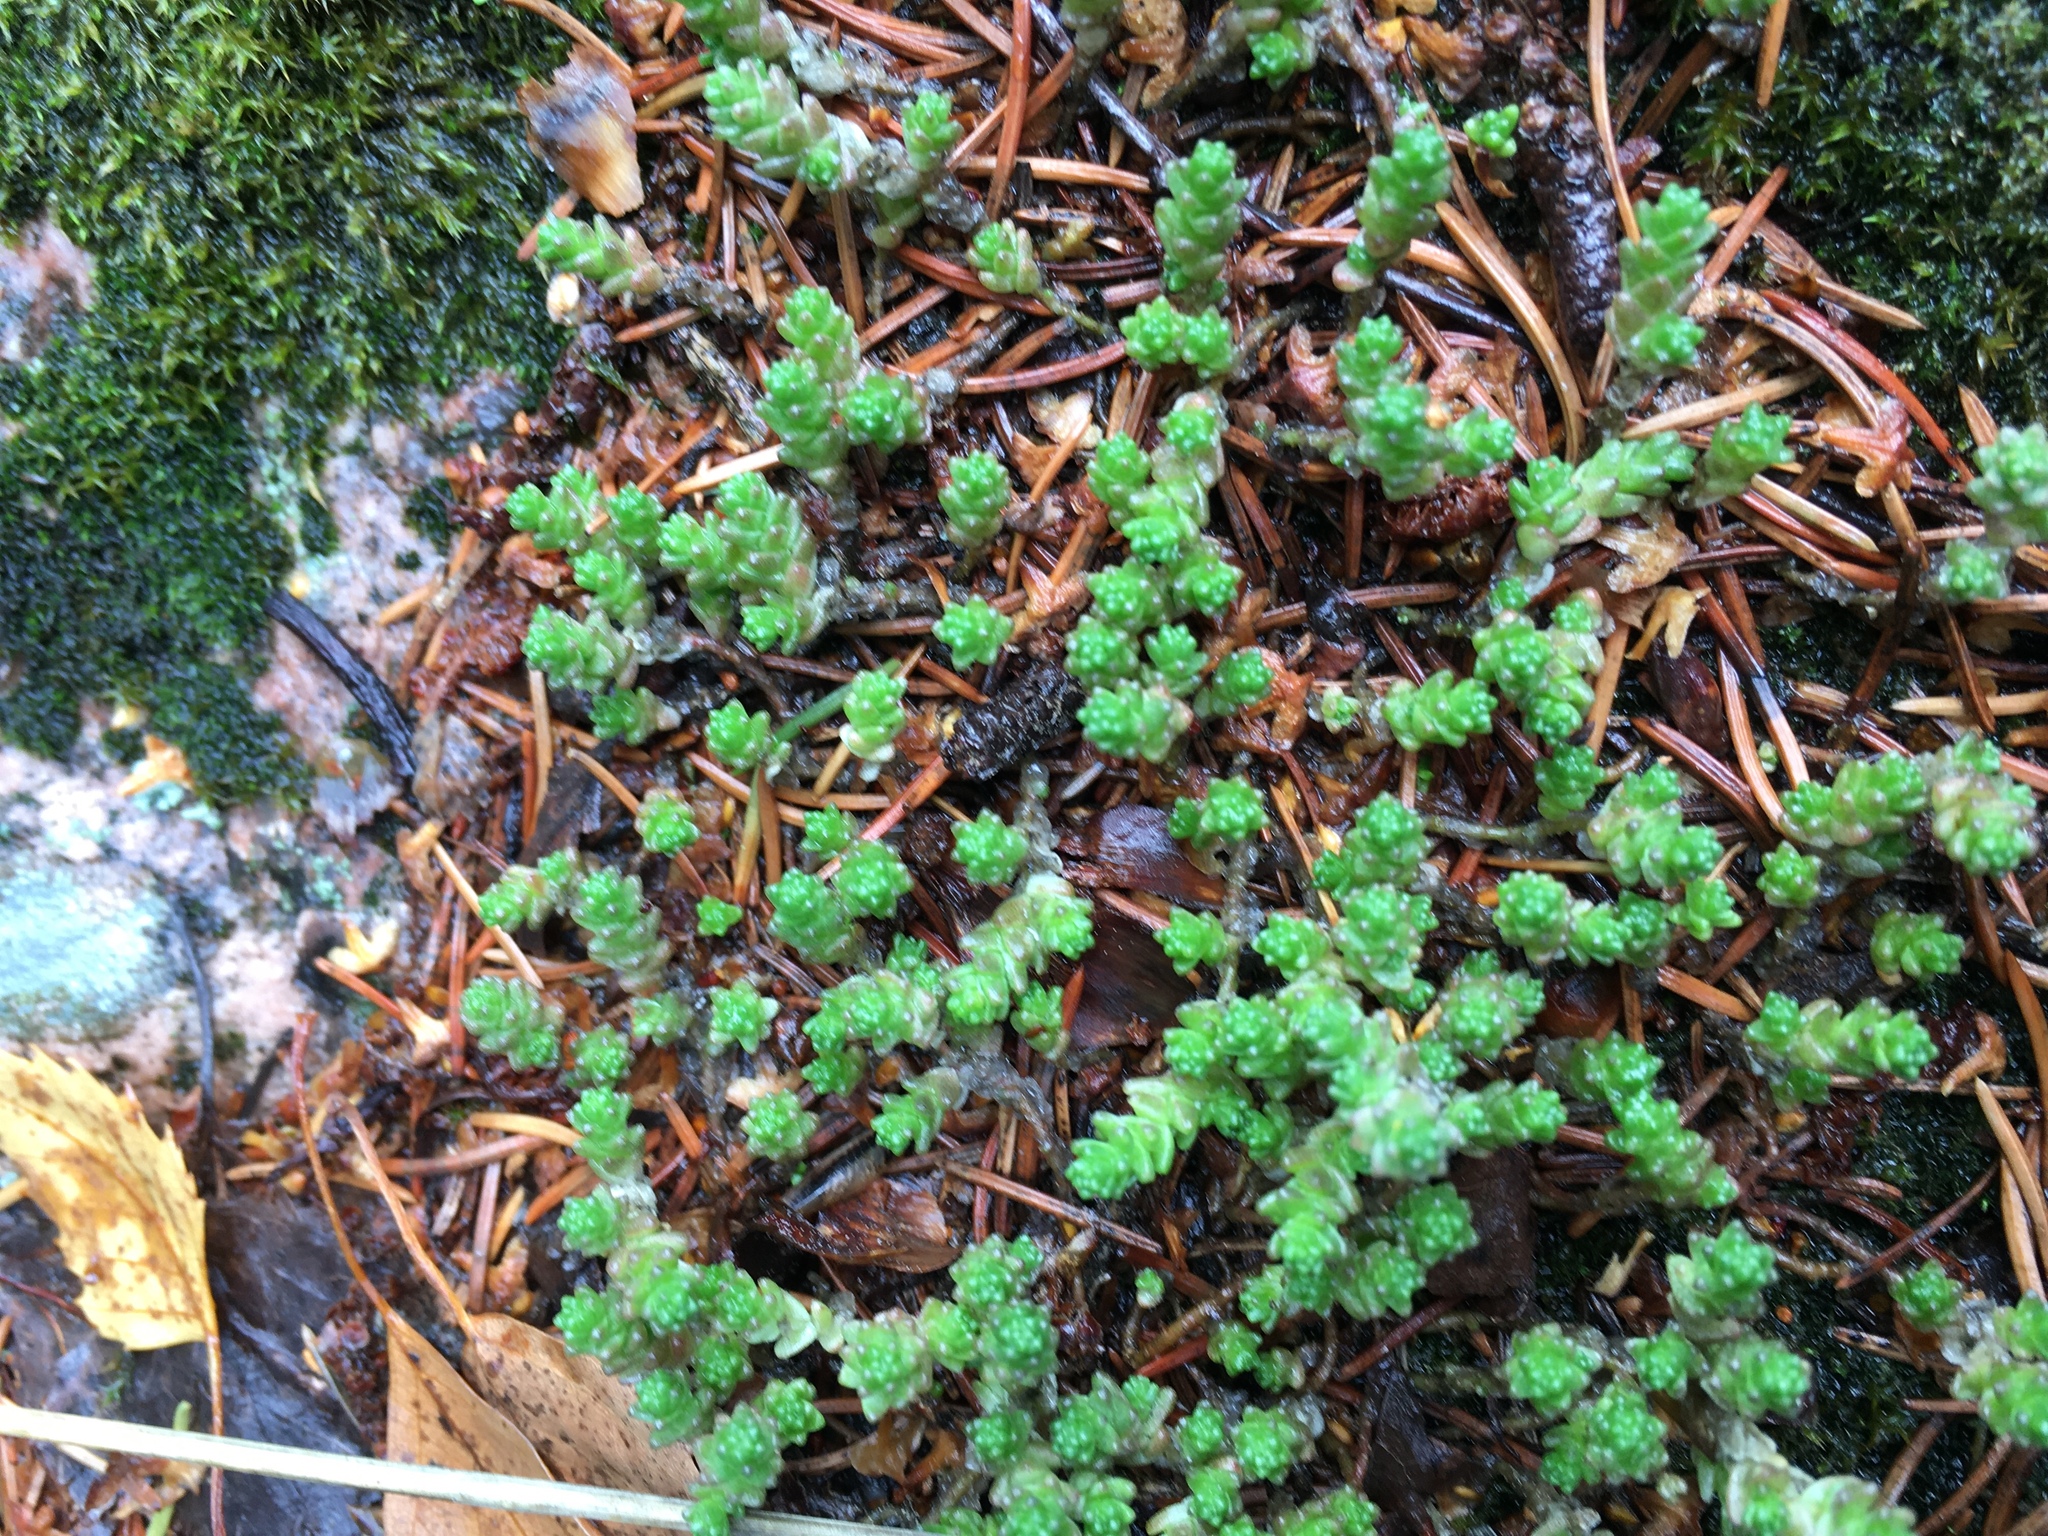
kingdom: Plantae
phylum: Tracheophyta
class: Magnoliopsida
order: Saxifragales
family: Crassulaceae
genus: Sedum
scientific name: Sedum acre
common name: Biting stonecrop
